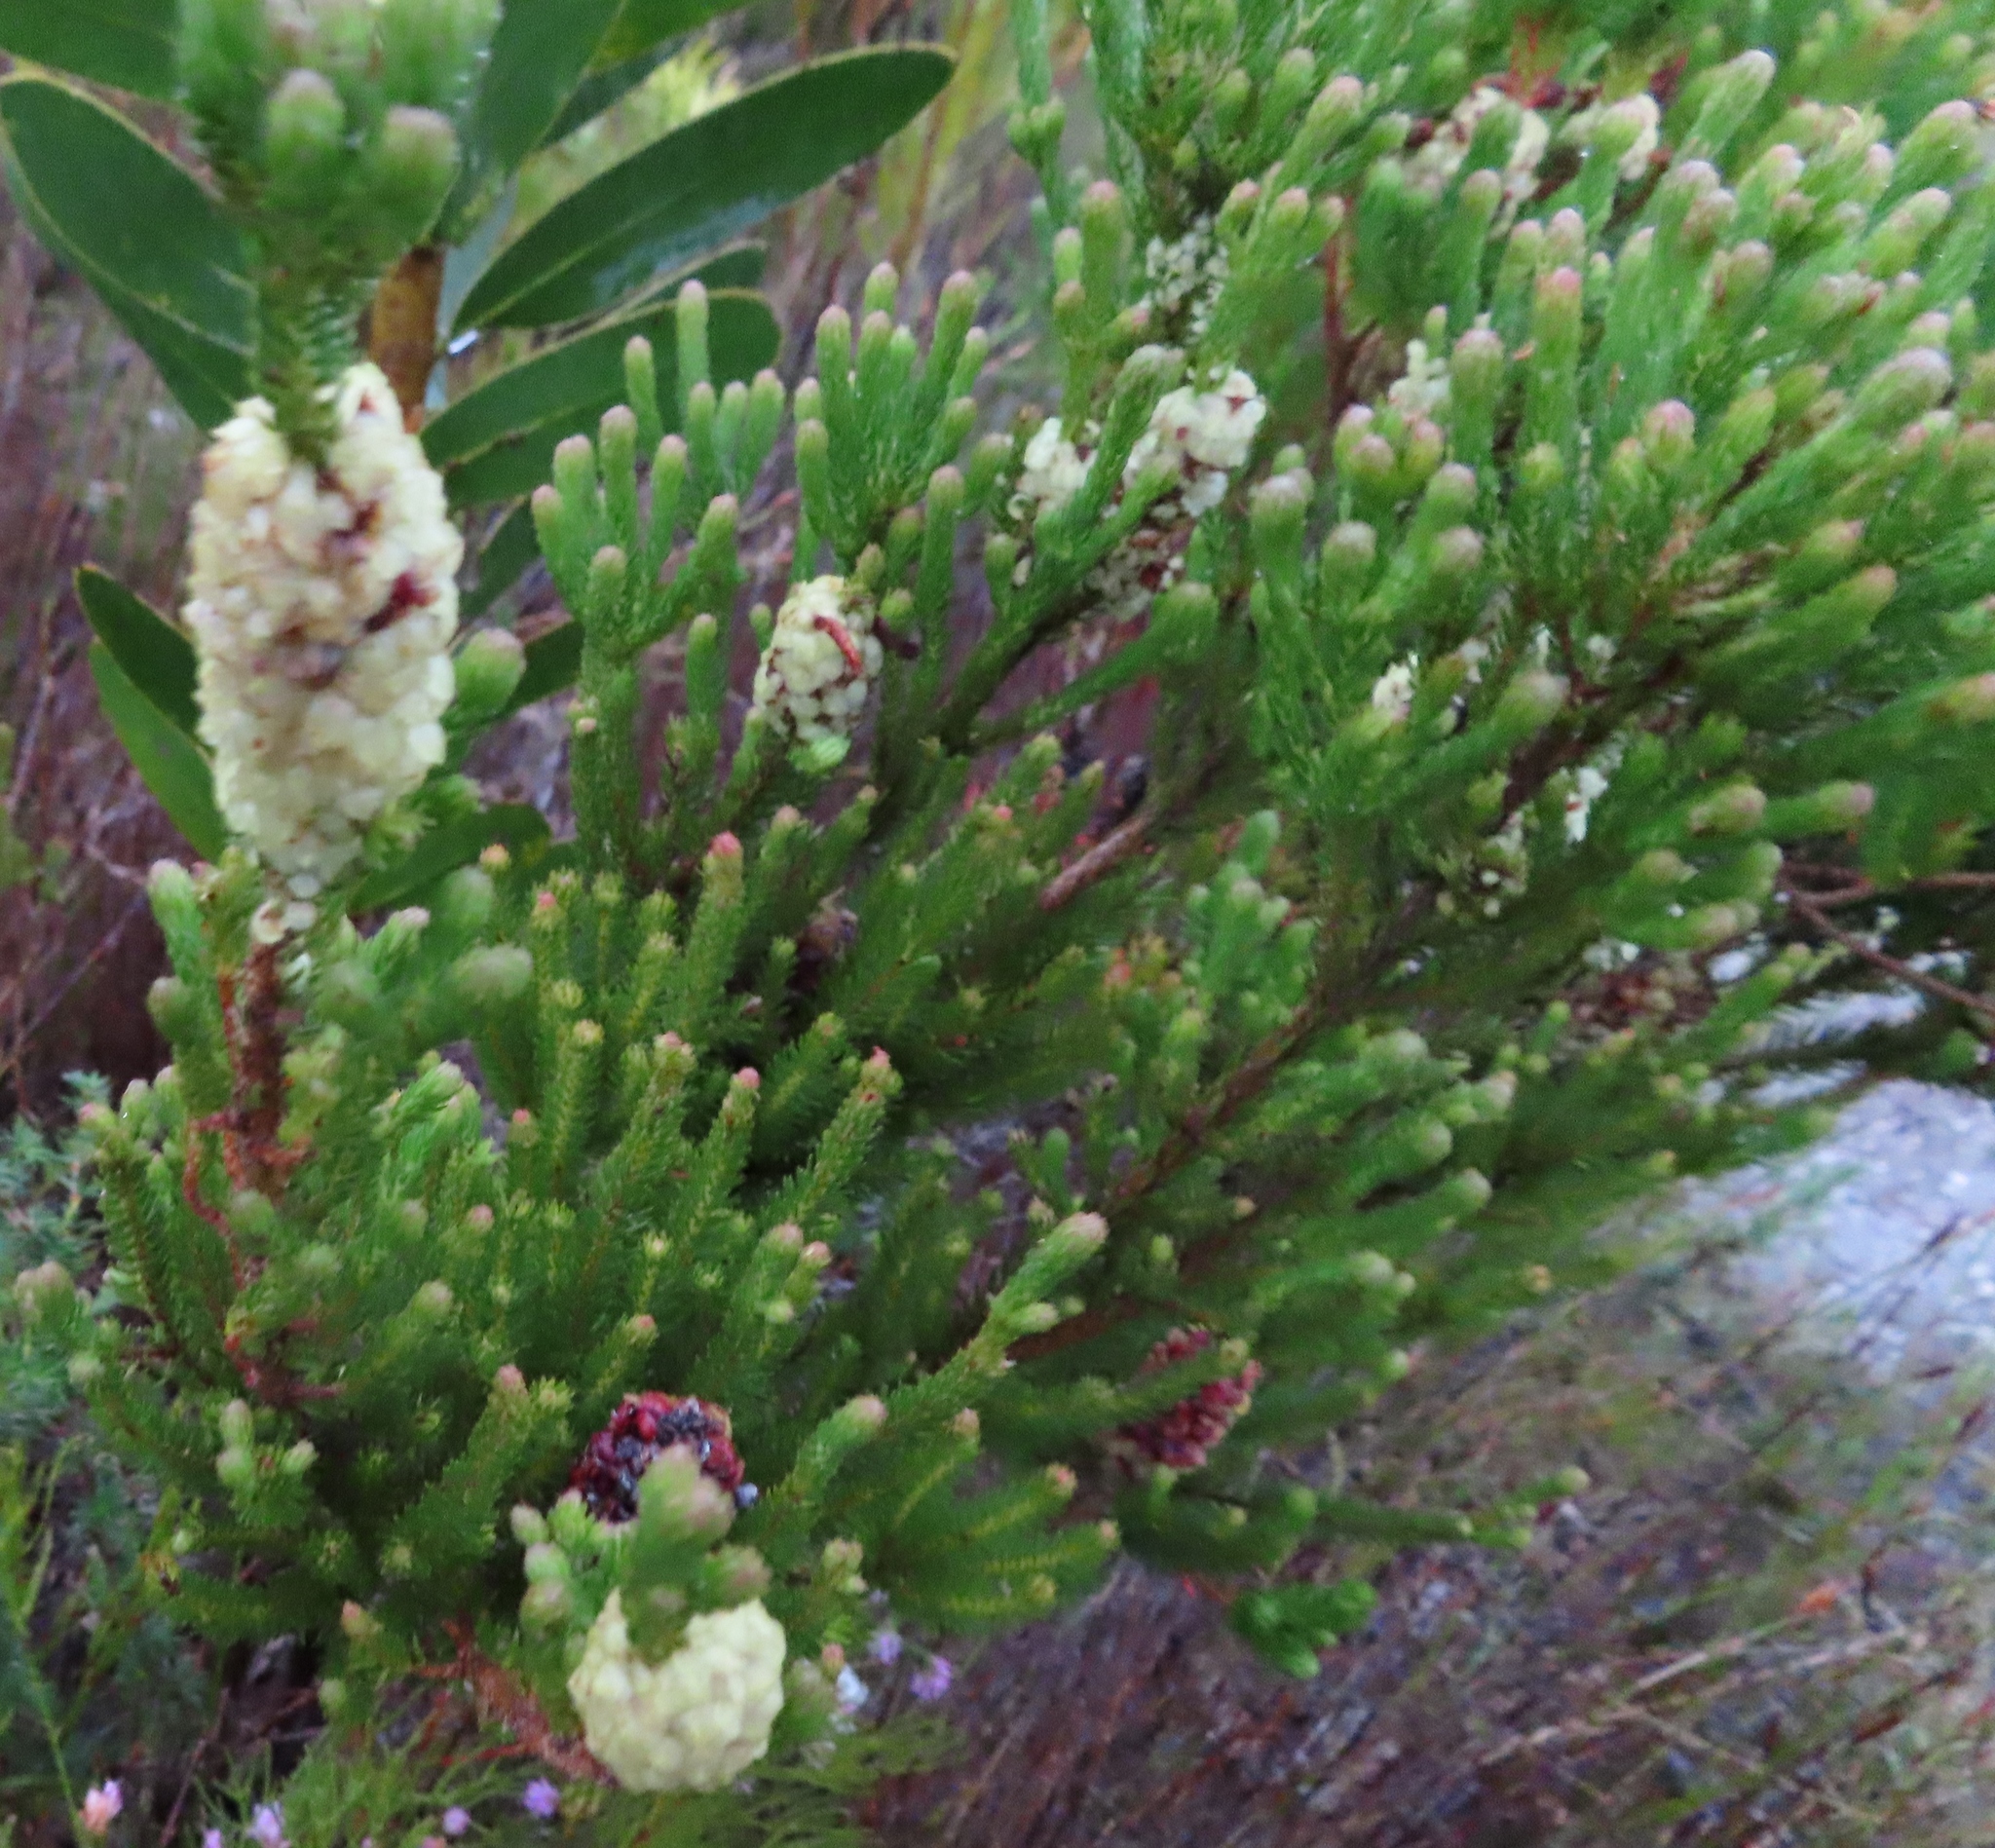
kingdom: Plantae
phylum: Tracheophyta
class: Magnoliopsida
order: Ericales
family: Ericaceae
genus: Erica
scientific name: Erica sessiliflora
